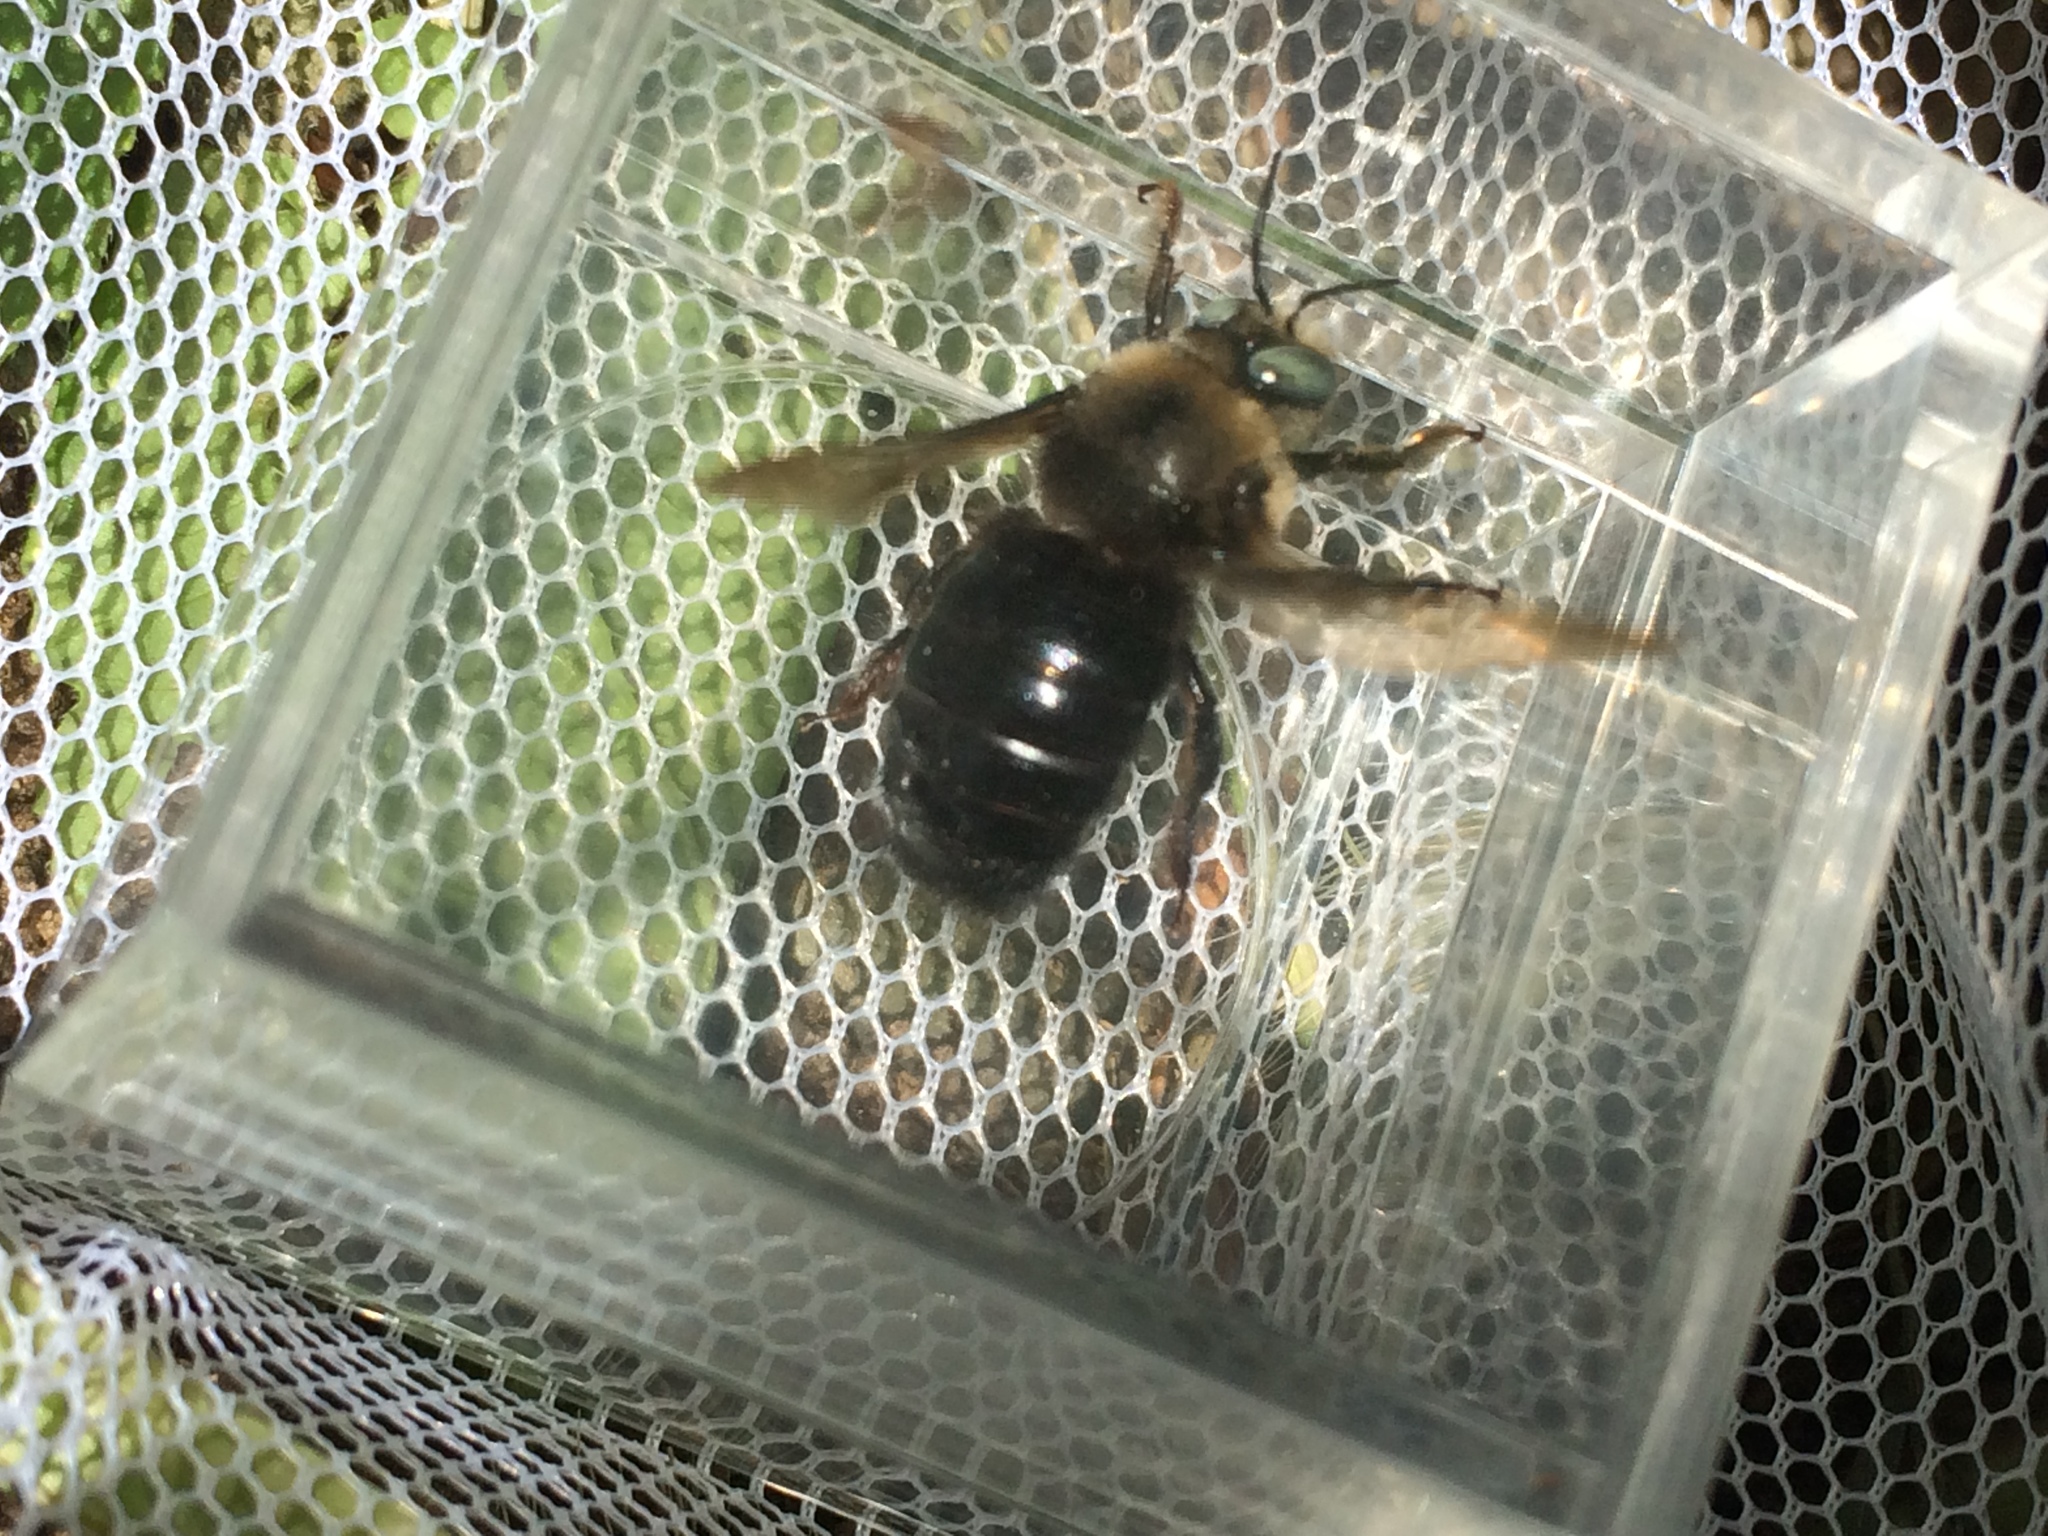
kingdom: Animalia
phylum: Arthropoda
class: Insecta
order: Hymenoptera
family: Apidae
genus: Xylocopa
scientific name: Xylocopa tabaniformis
